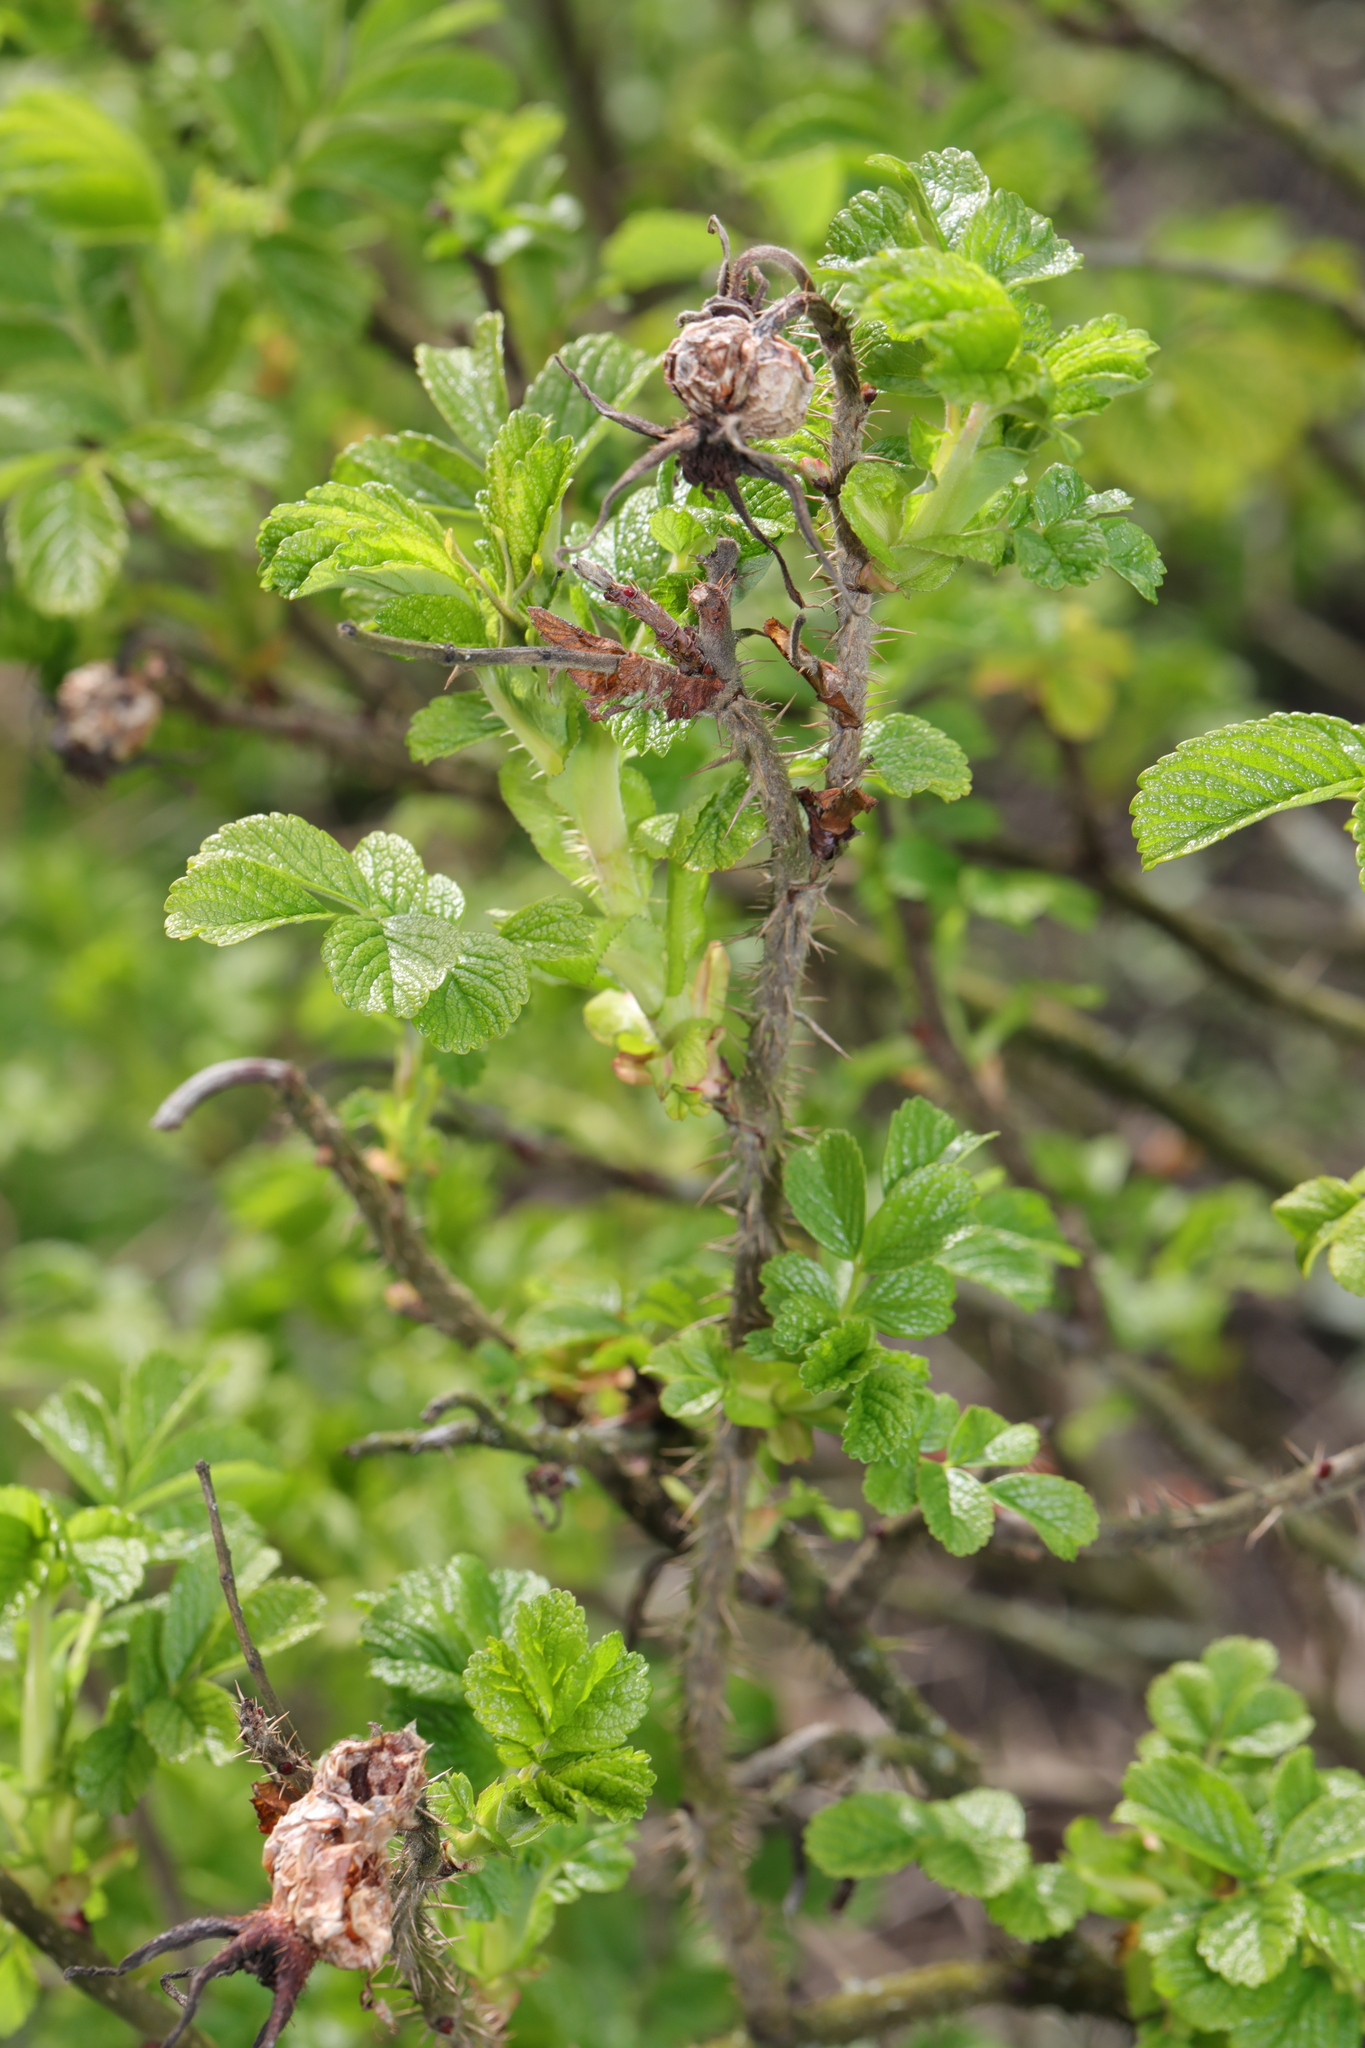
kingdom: Plantae
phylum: Tracheophyta
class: Magnoliopsida
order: Rosales
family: Rosaceae
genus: Rosa
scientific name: Rosa rugosa
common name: Japanese rose
